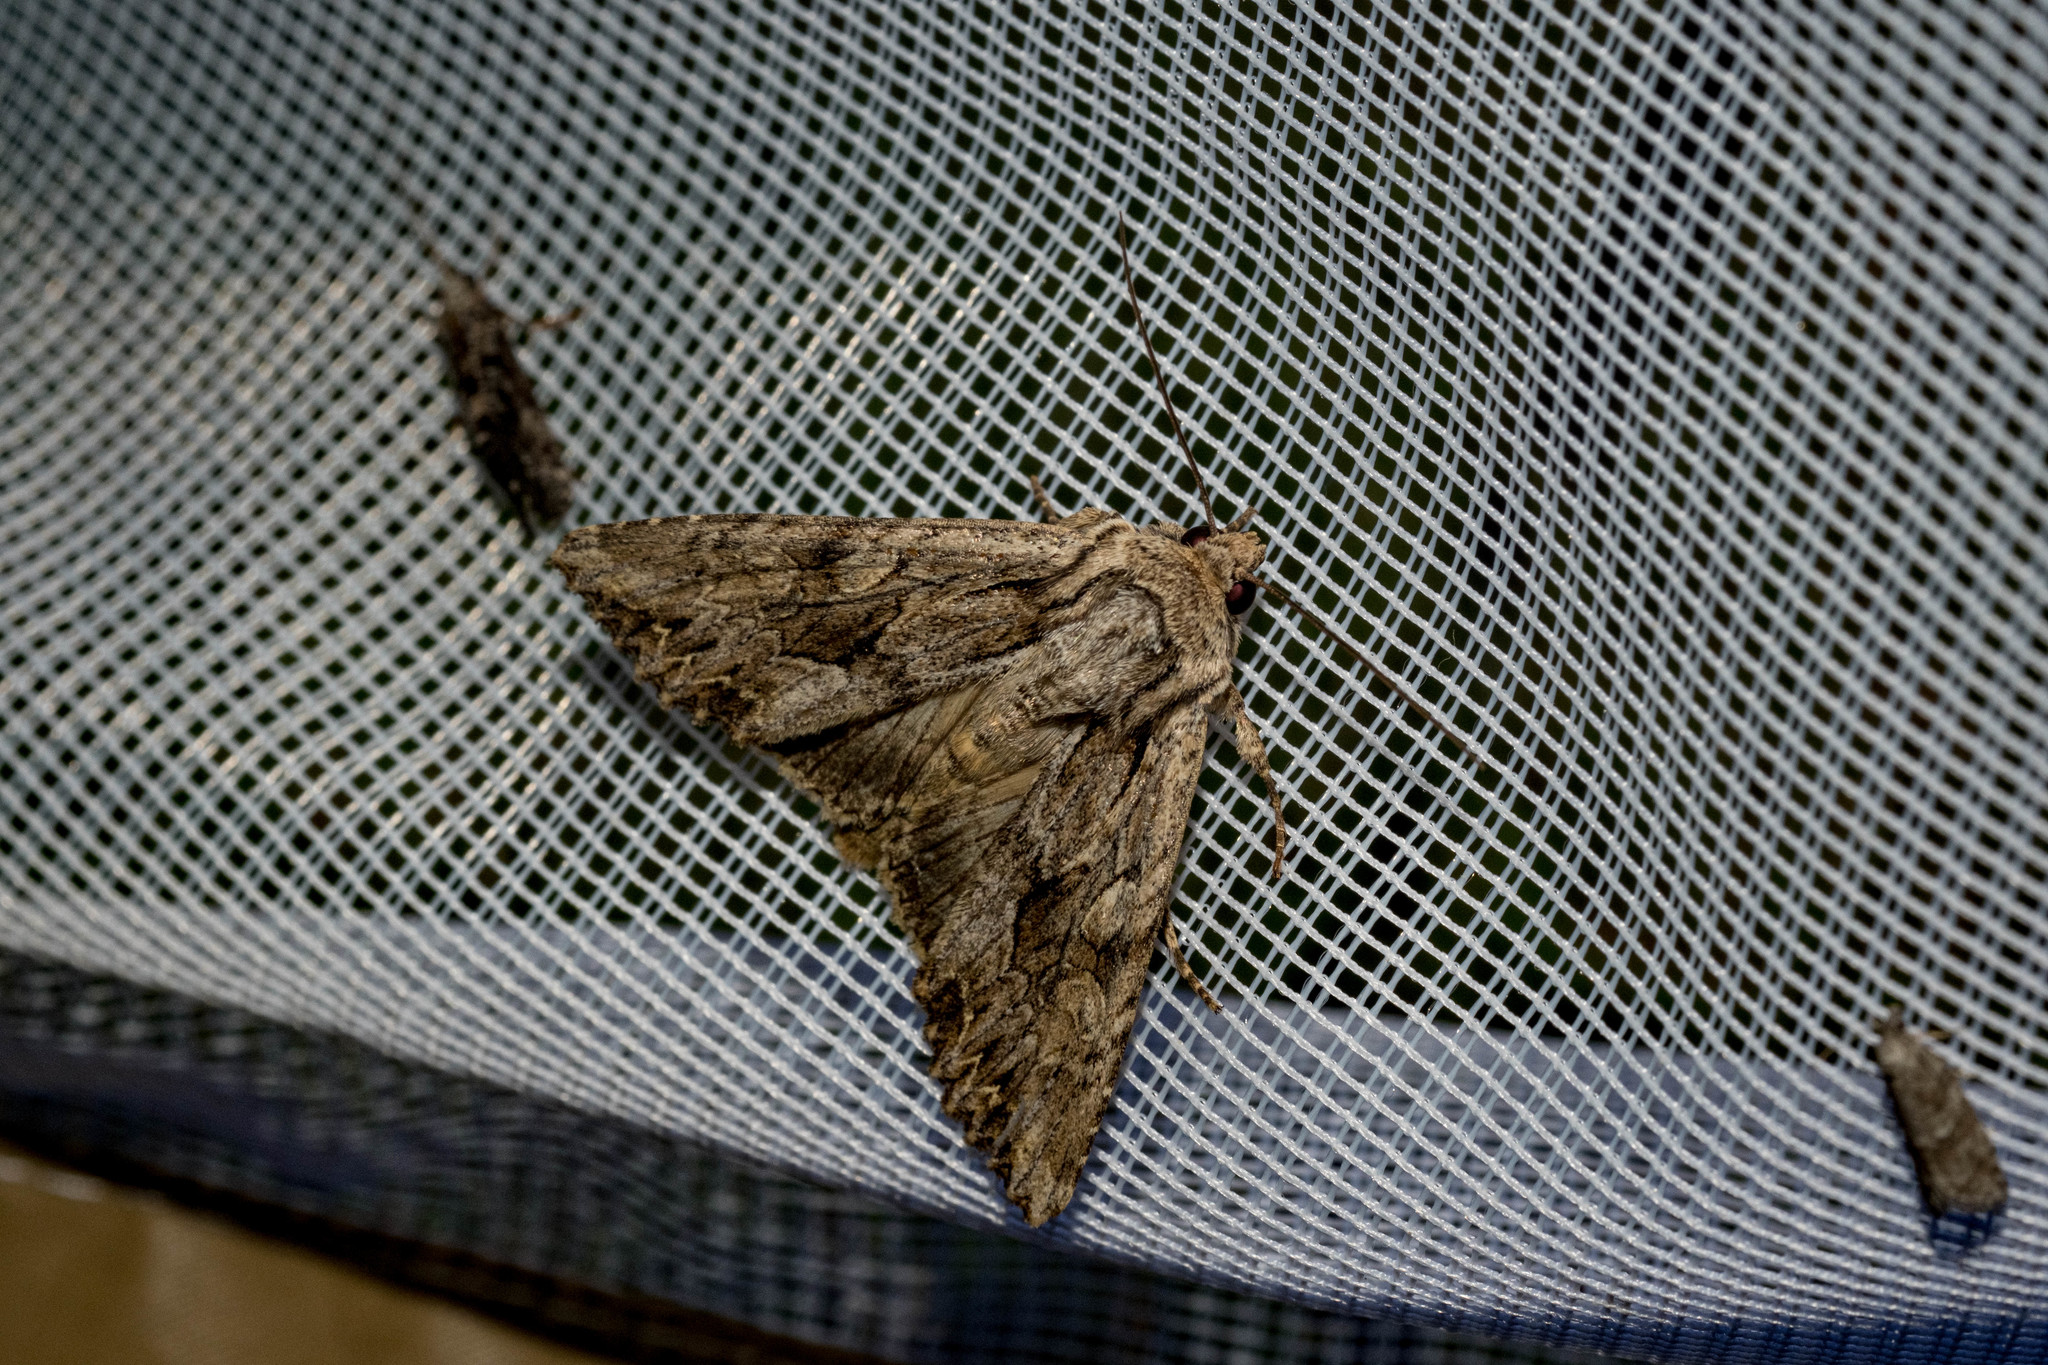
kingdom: Animalia
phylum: Arthropoda
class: Insecta
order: Lepidoptera
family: Noctuidae
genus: Apamea
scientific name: Apamea monoglypha
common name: Dark arches
